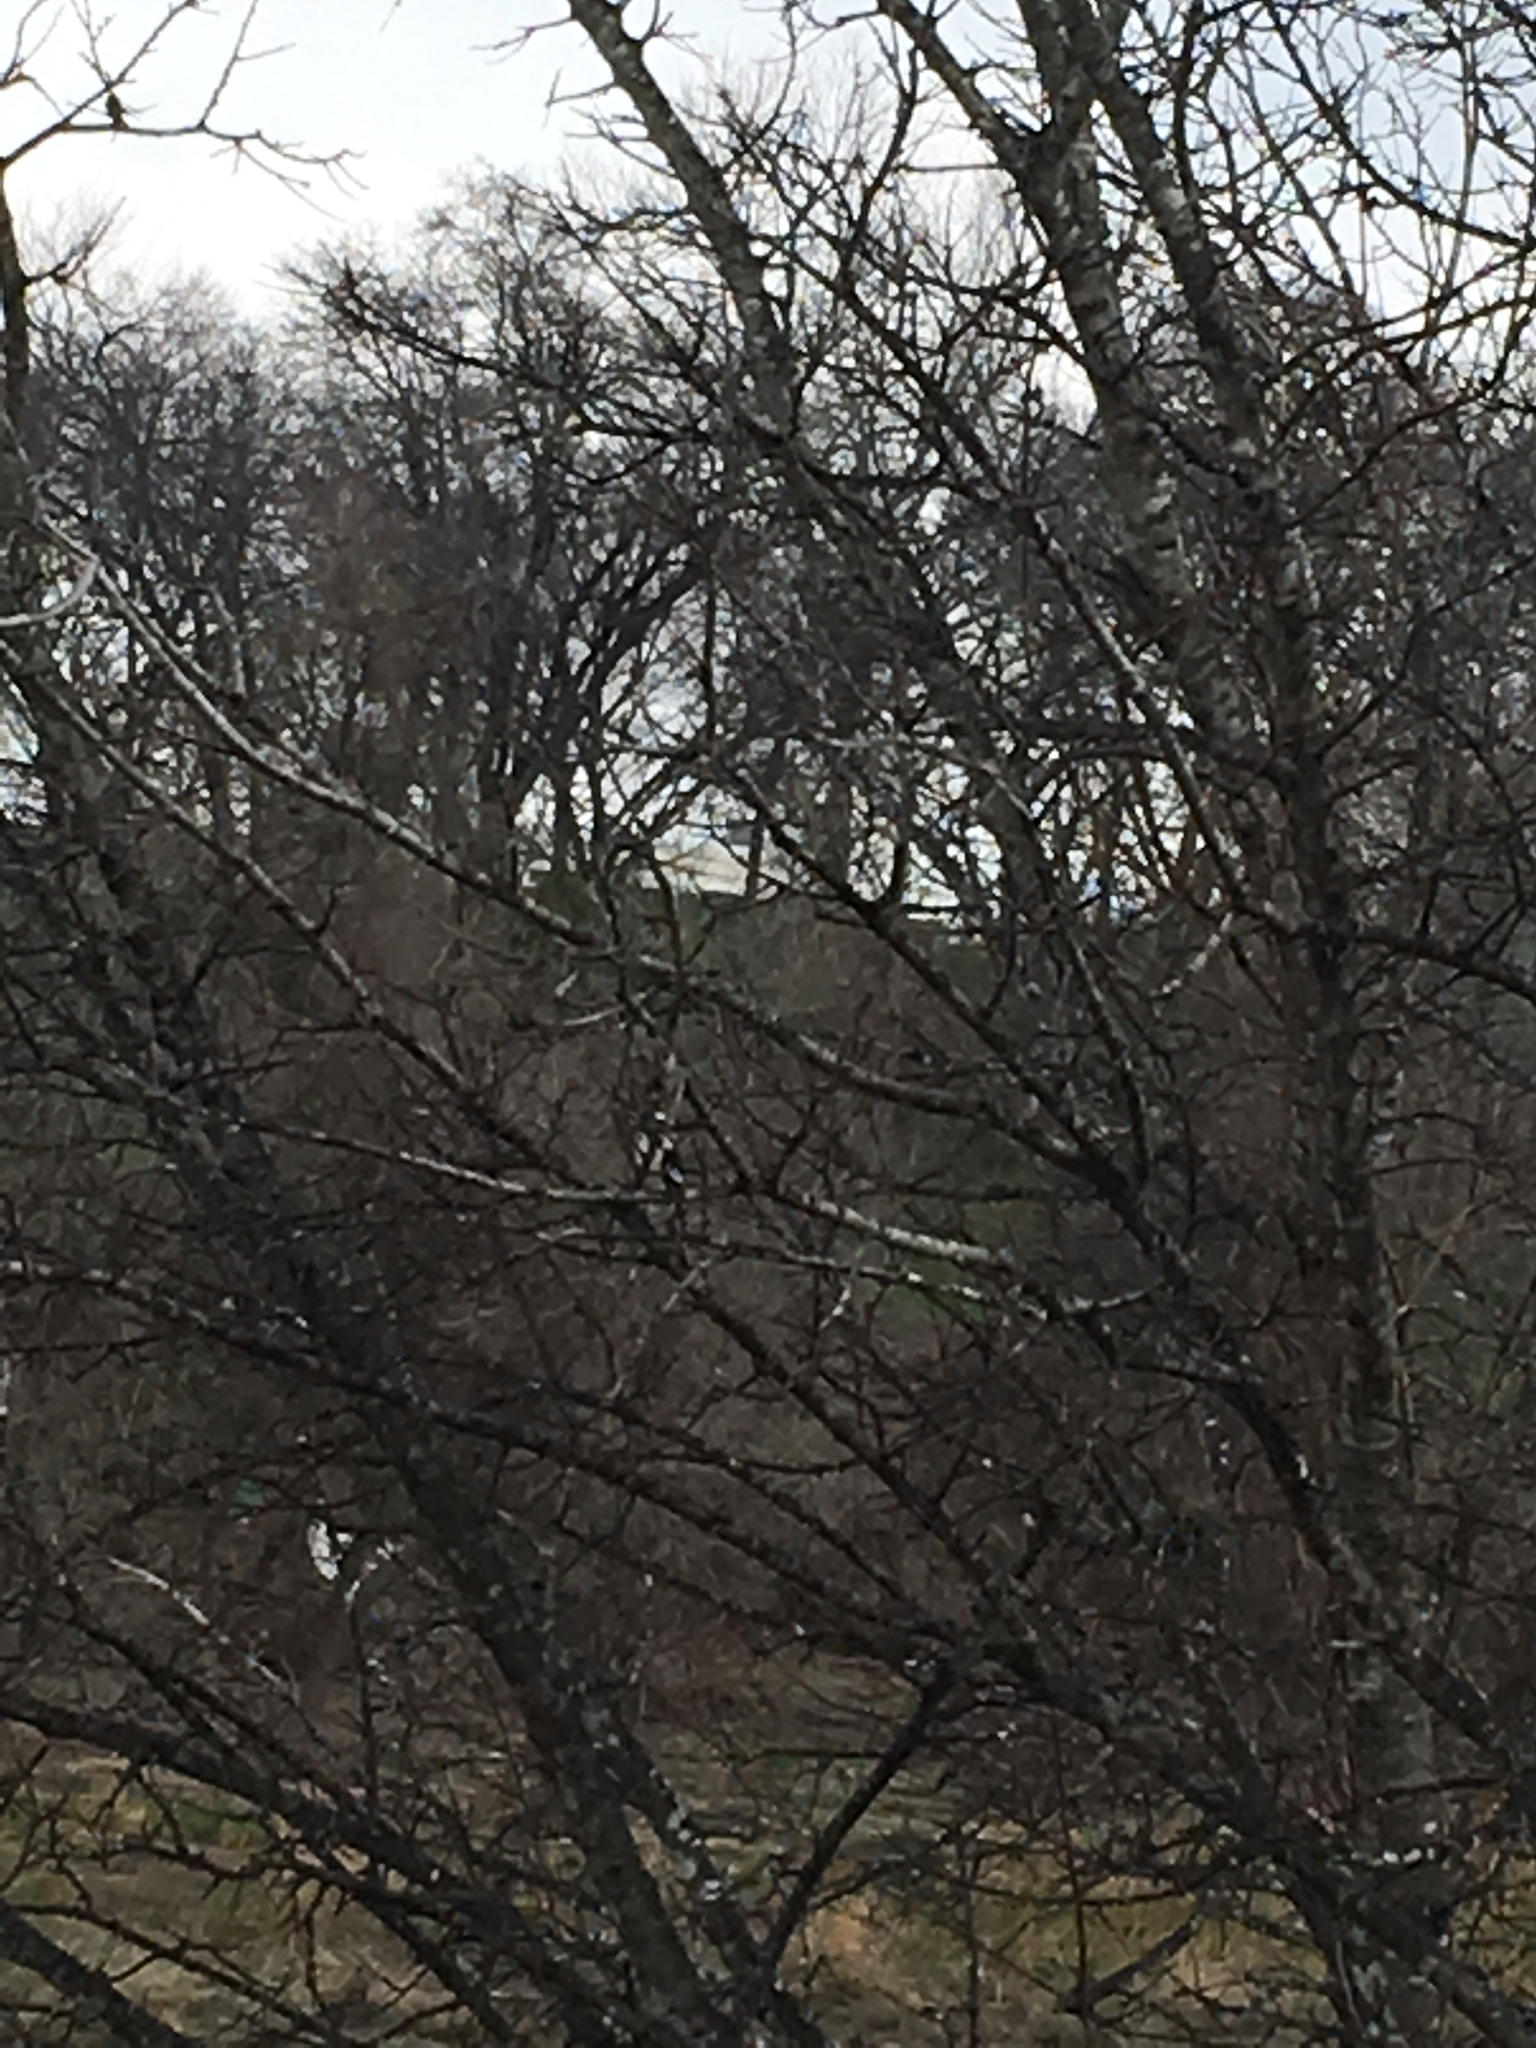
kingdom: Animalia
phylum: Chordata
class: Aves
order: Piciformes
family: Picidae
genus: Dryobates
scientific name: Dryobates pubescens
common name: Downy woodpecker
